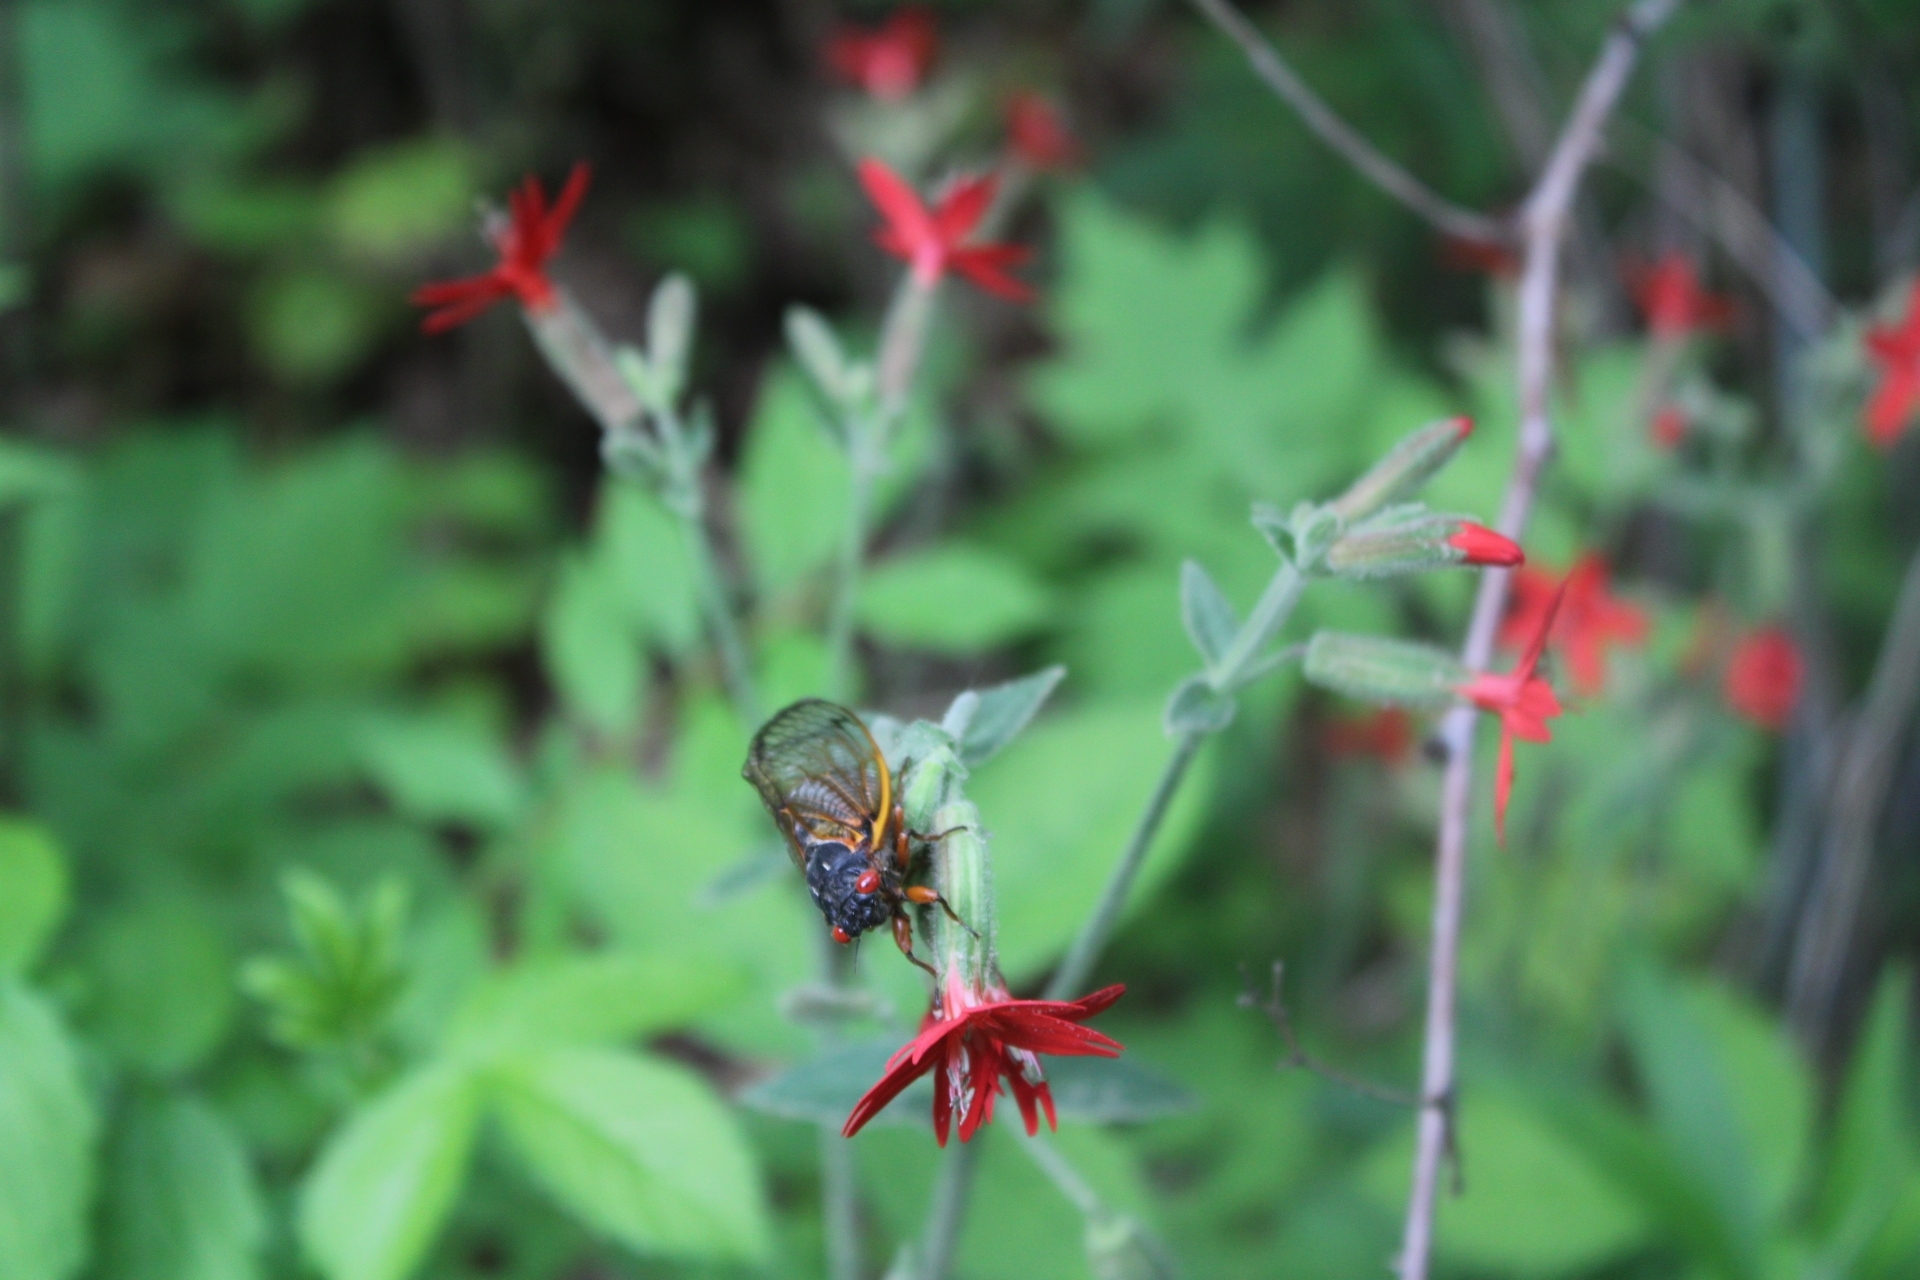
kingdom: Animalia
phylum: Arthropoda
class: Insecta
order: Hemiptera
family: Cicadidae
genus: Magicicada
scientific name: Magicicada septendecim
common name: Periodical cicada
